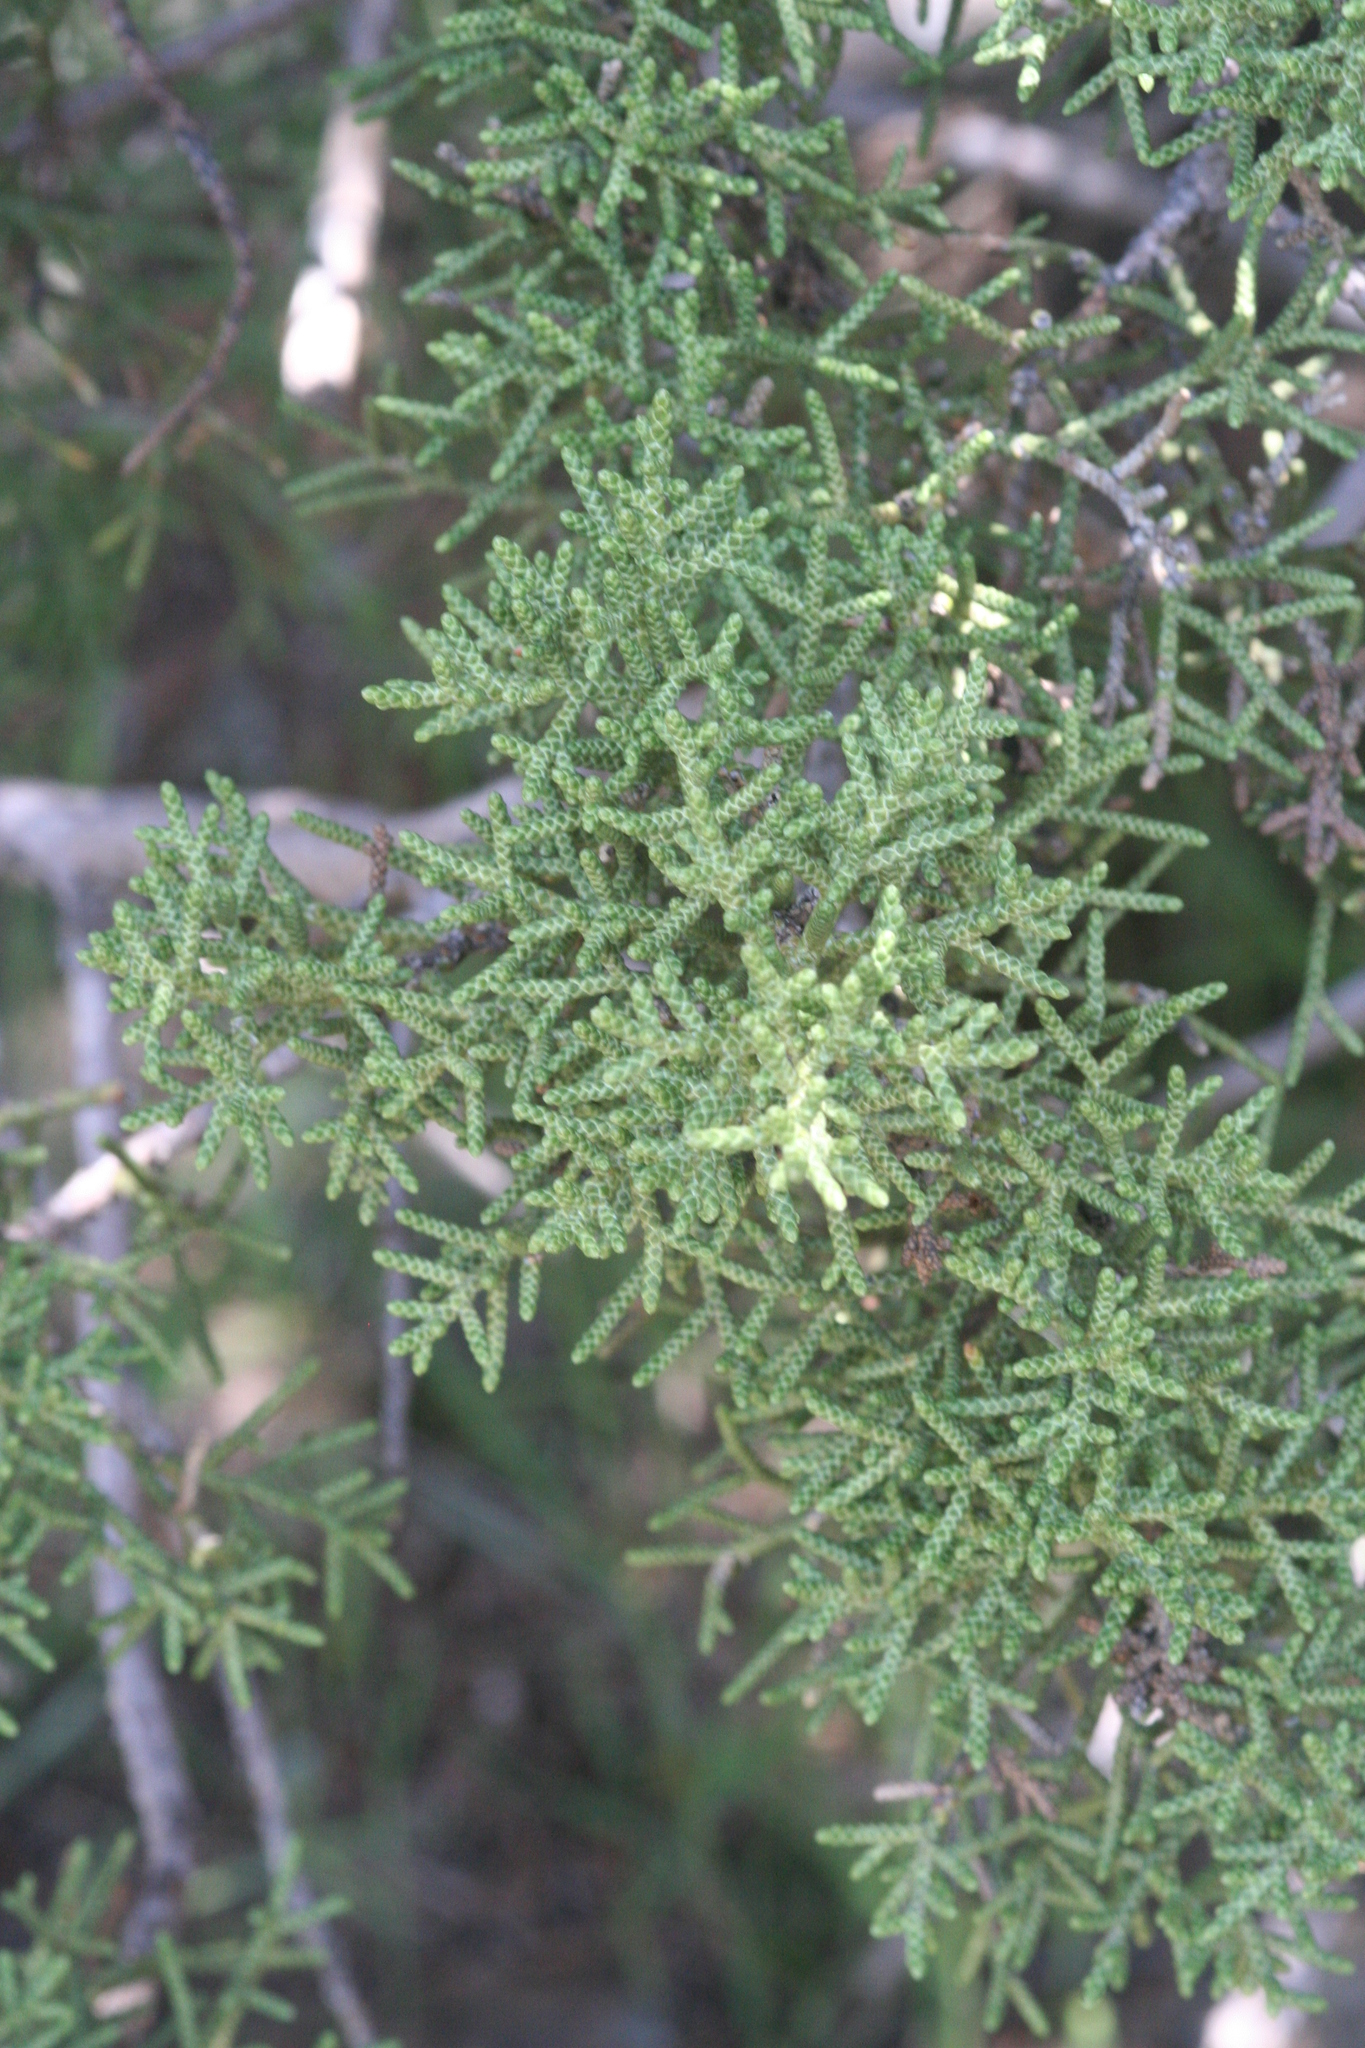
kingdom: Plantae
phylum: Tracheophyta
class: Pinopsida
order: Pinales
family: Cupressaceae
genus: Juniperus
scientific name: Juniperus californica
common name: California juniper
